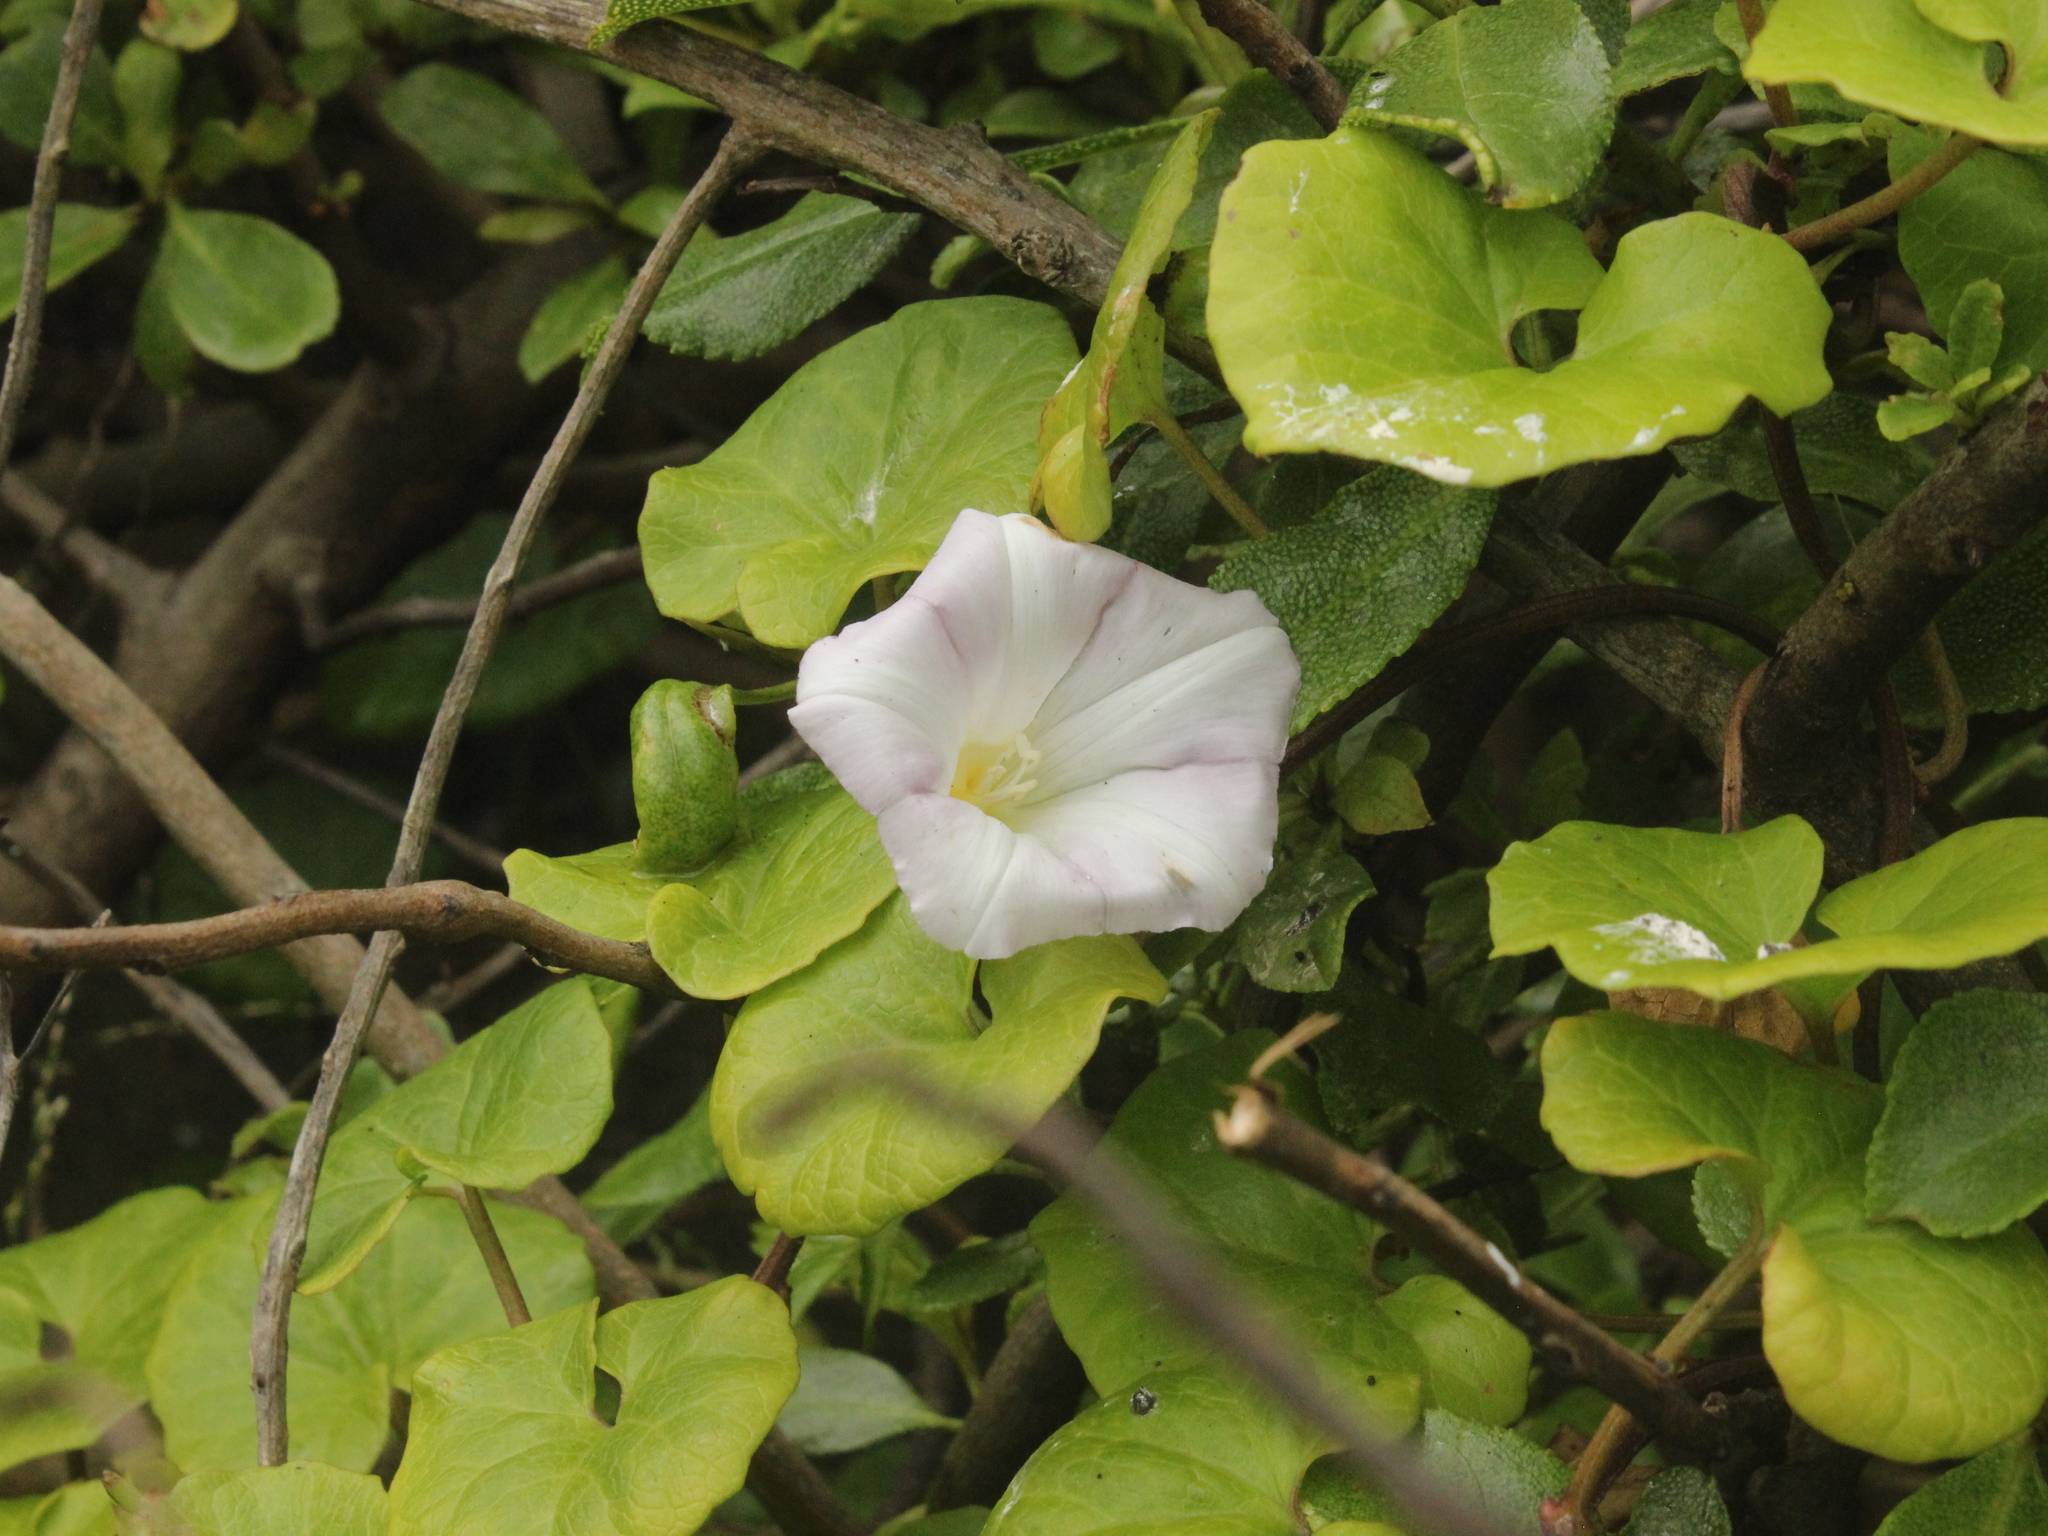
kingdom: Plantae
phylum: Tracheophyta
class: Magnoliopsida
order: Solanales
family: Convolvulaceae
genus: Calystegia
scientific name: Calystegia
